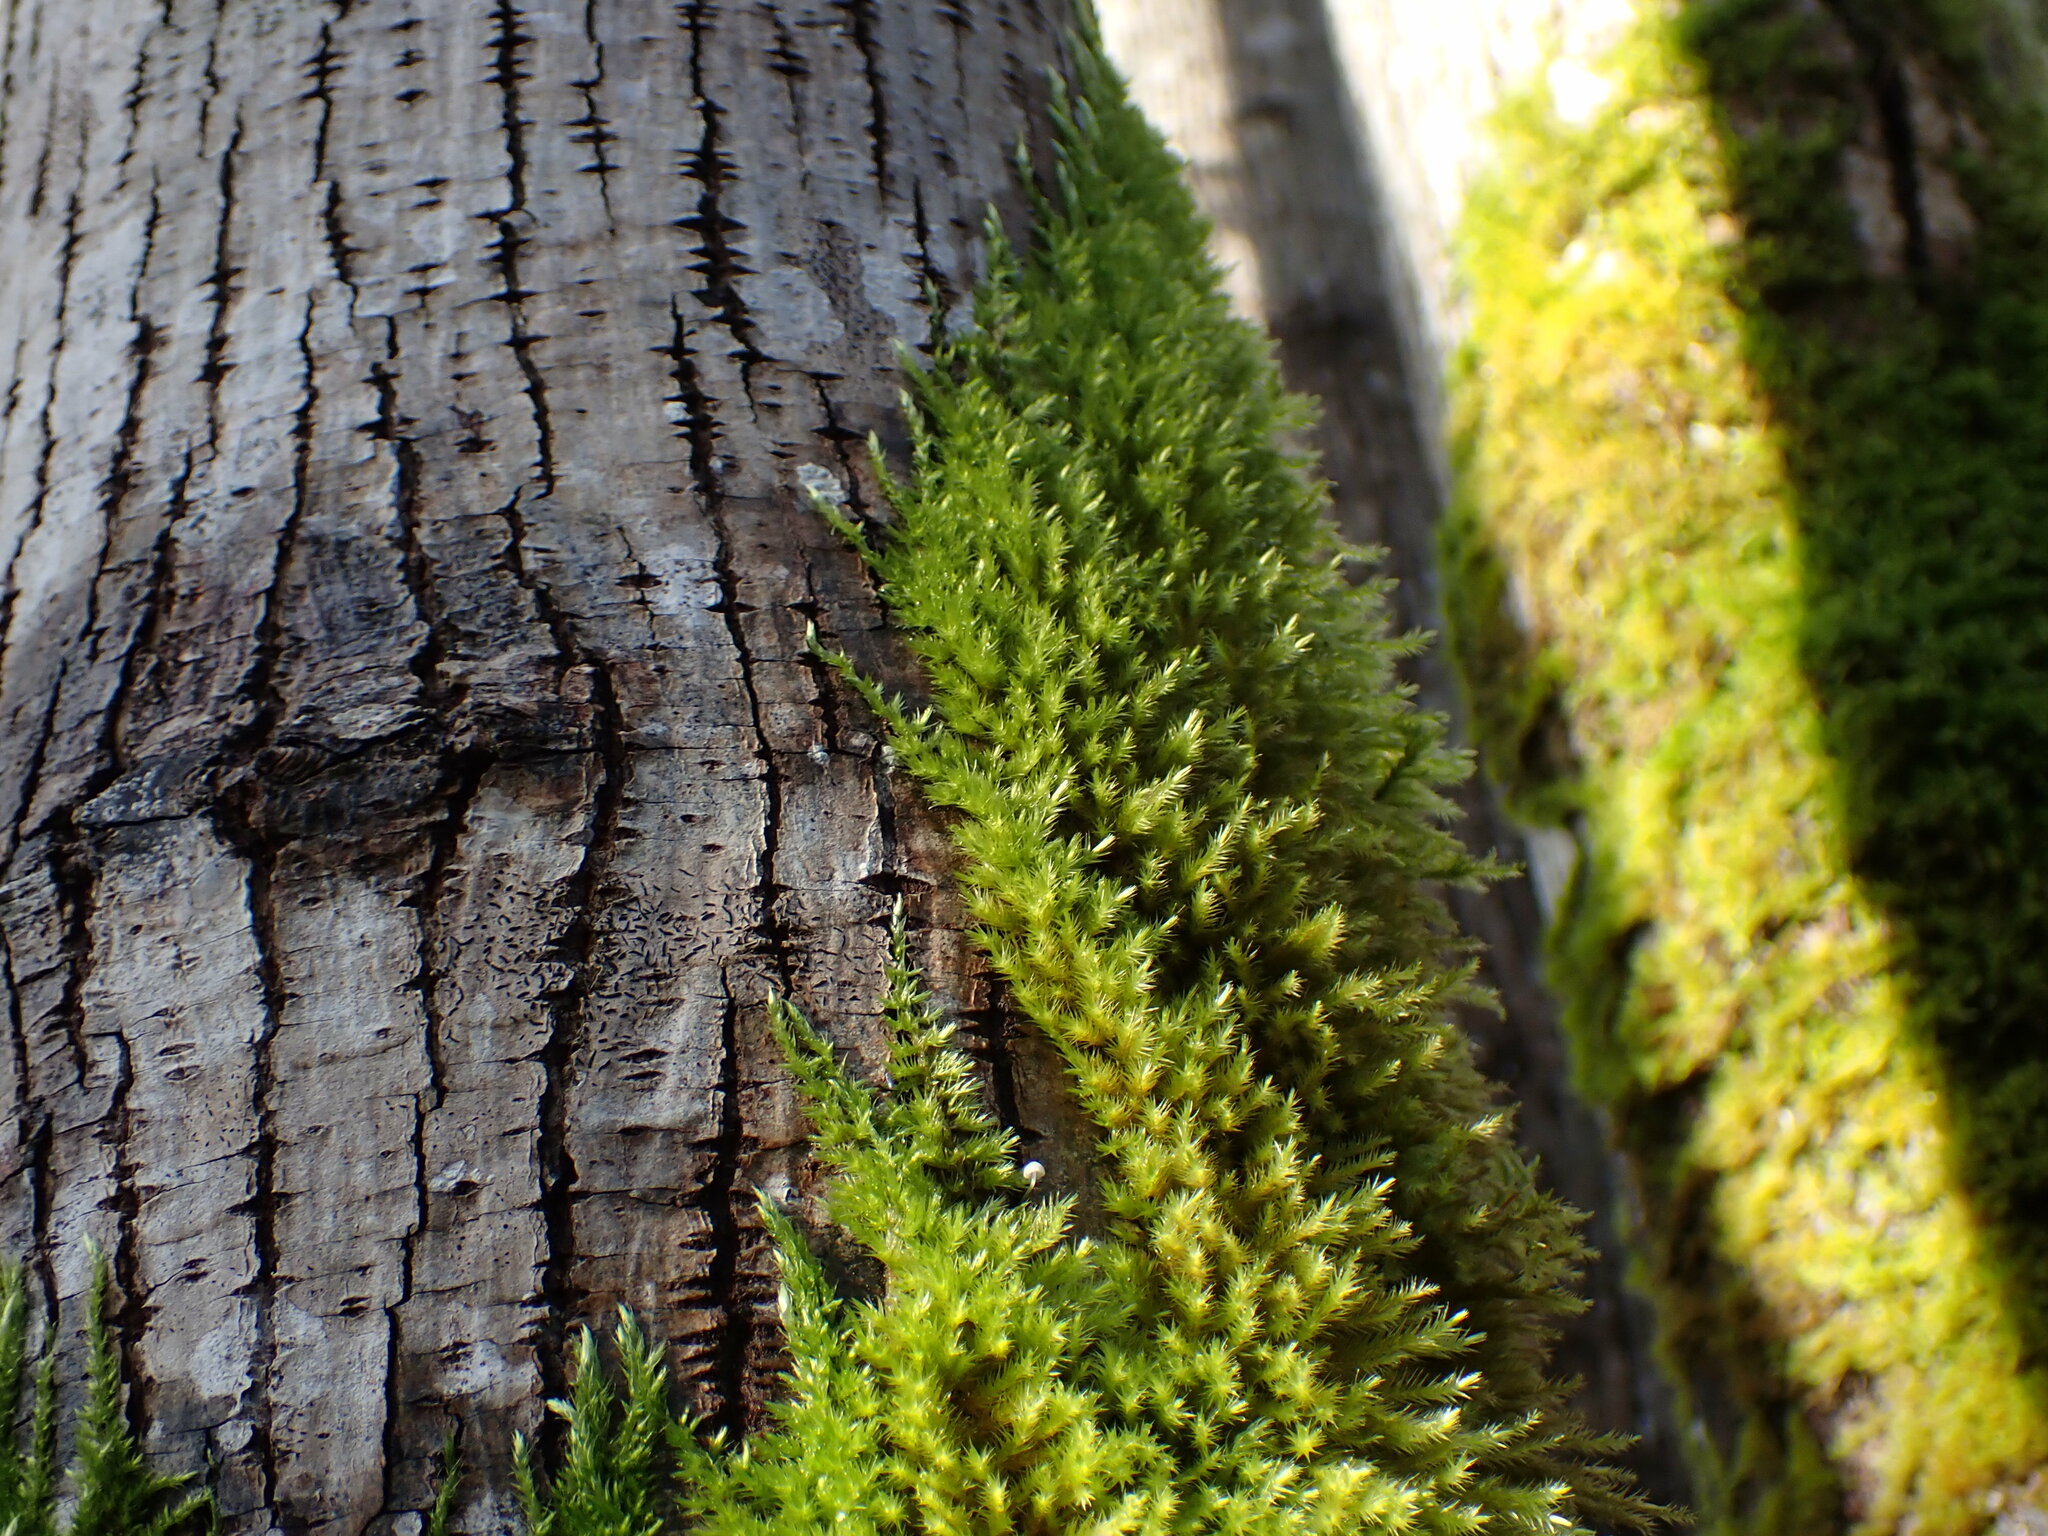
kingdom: Plantae
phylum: Bryophyta
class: Bryopsida
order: Hypnales
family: Brachytheciaceae
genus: Homalothecium
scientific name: Homalothecium fulgescens
